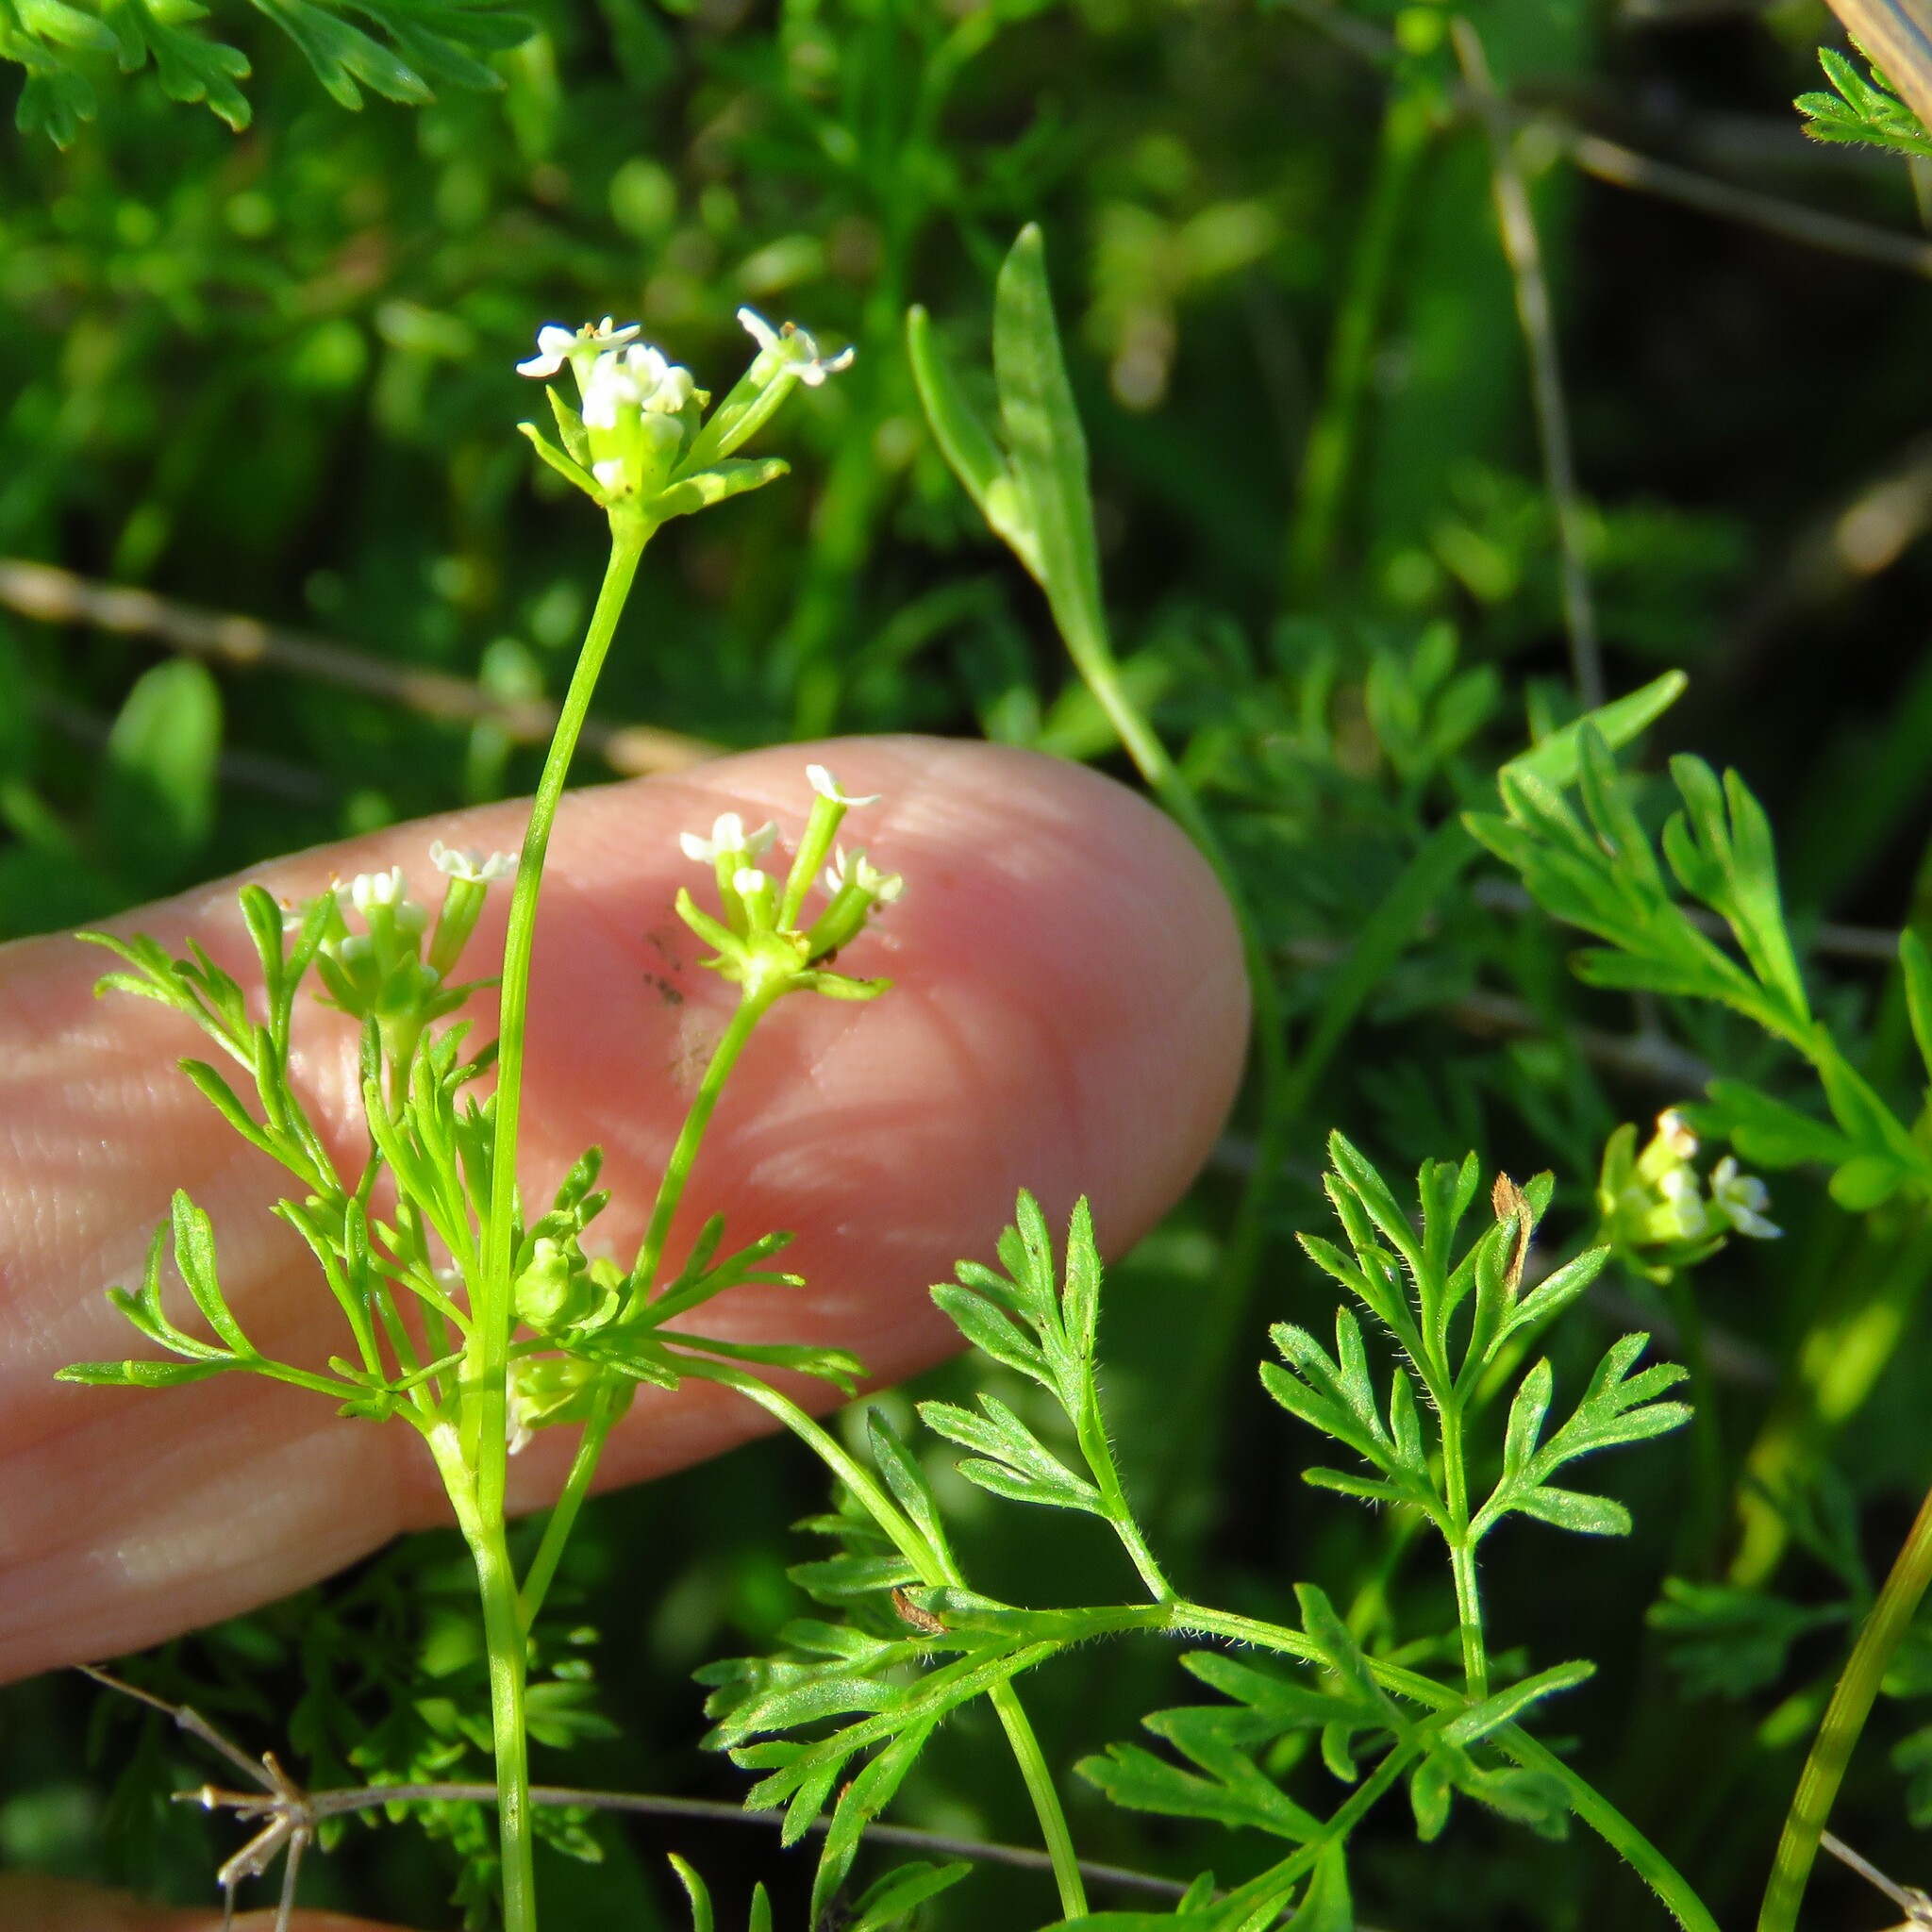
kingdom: Plantae
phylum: Tracheophyta
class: Magnoliopsida
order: Apiales
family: Apiaceae
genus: Chaerophyllum
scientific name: Chaerophyllum tainturieri
